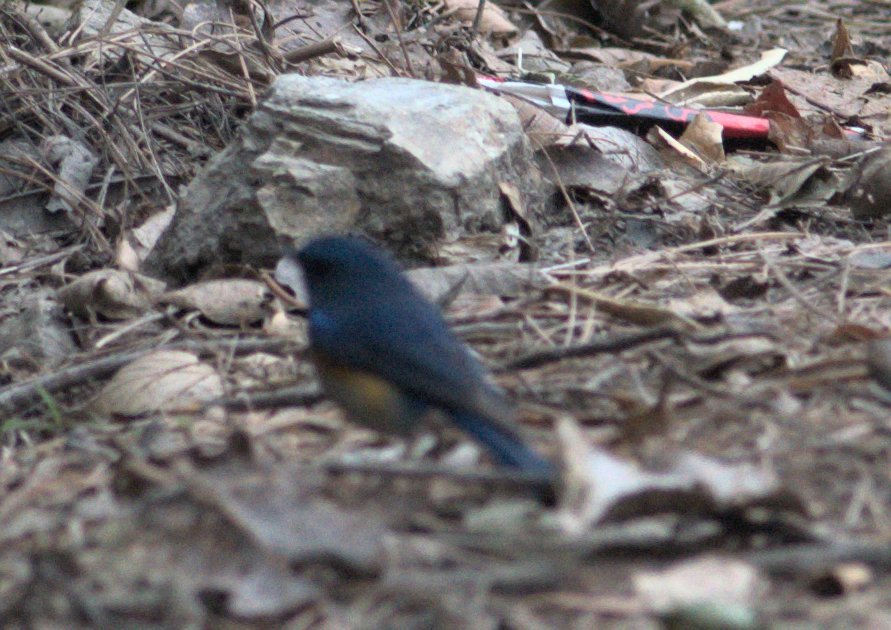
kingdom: Animalia
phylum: Chordata
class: Aves
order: Passeriformes
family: Muscicapidae
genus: Tarsiger
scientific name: Tarsiger rufilatus
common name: Himalayan bluetail
